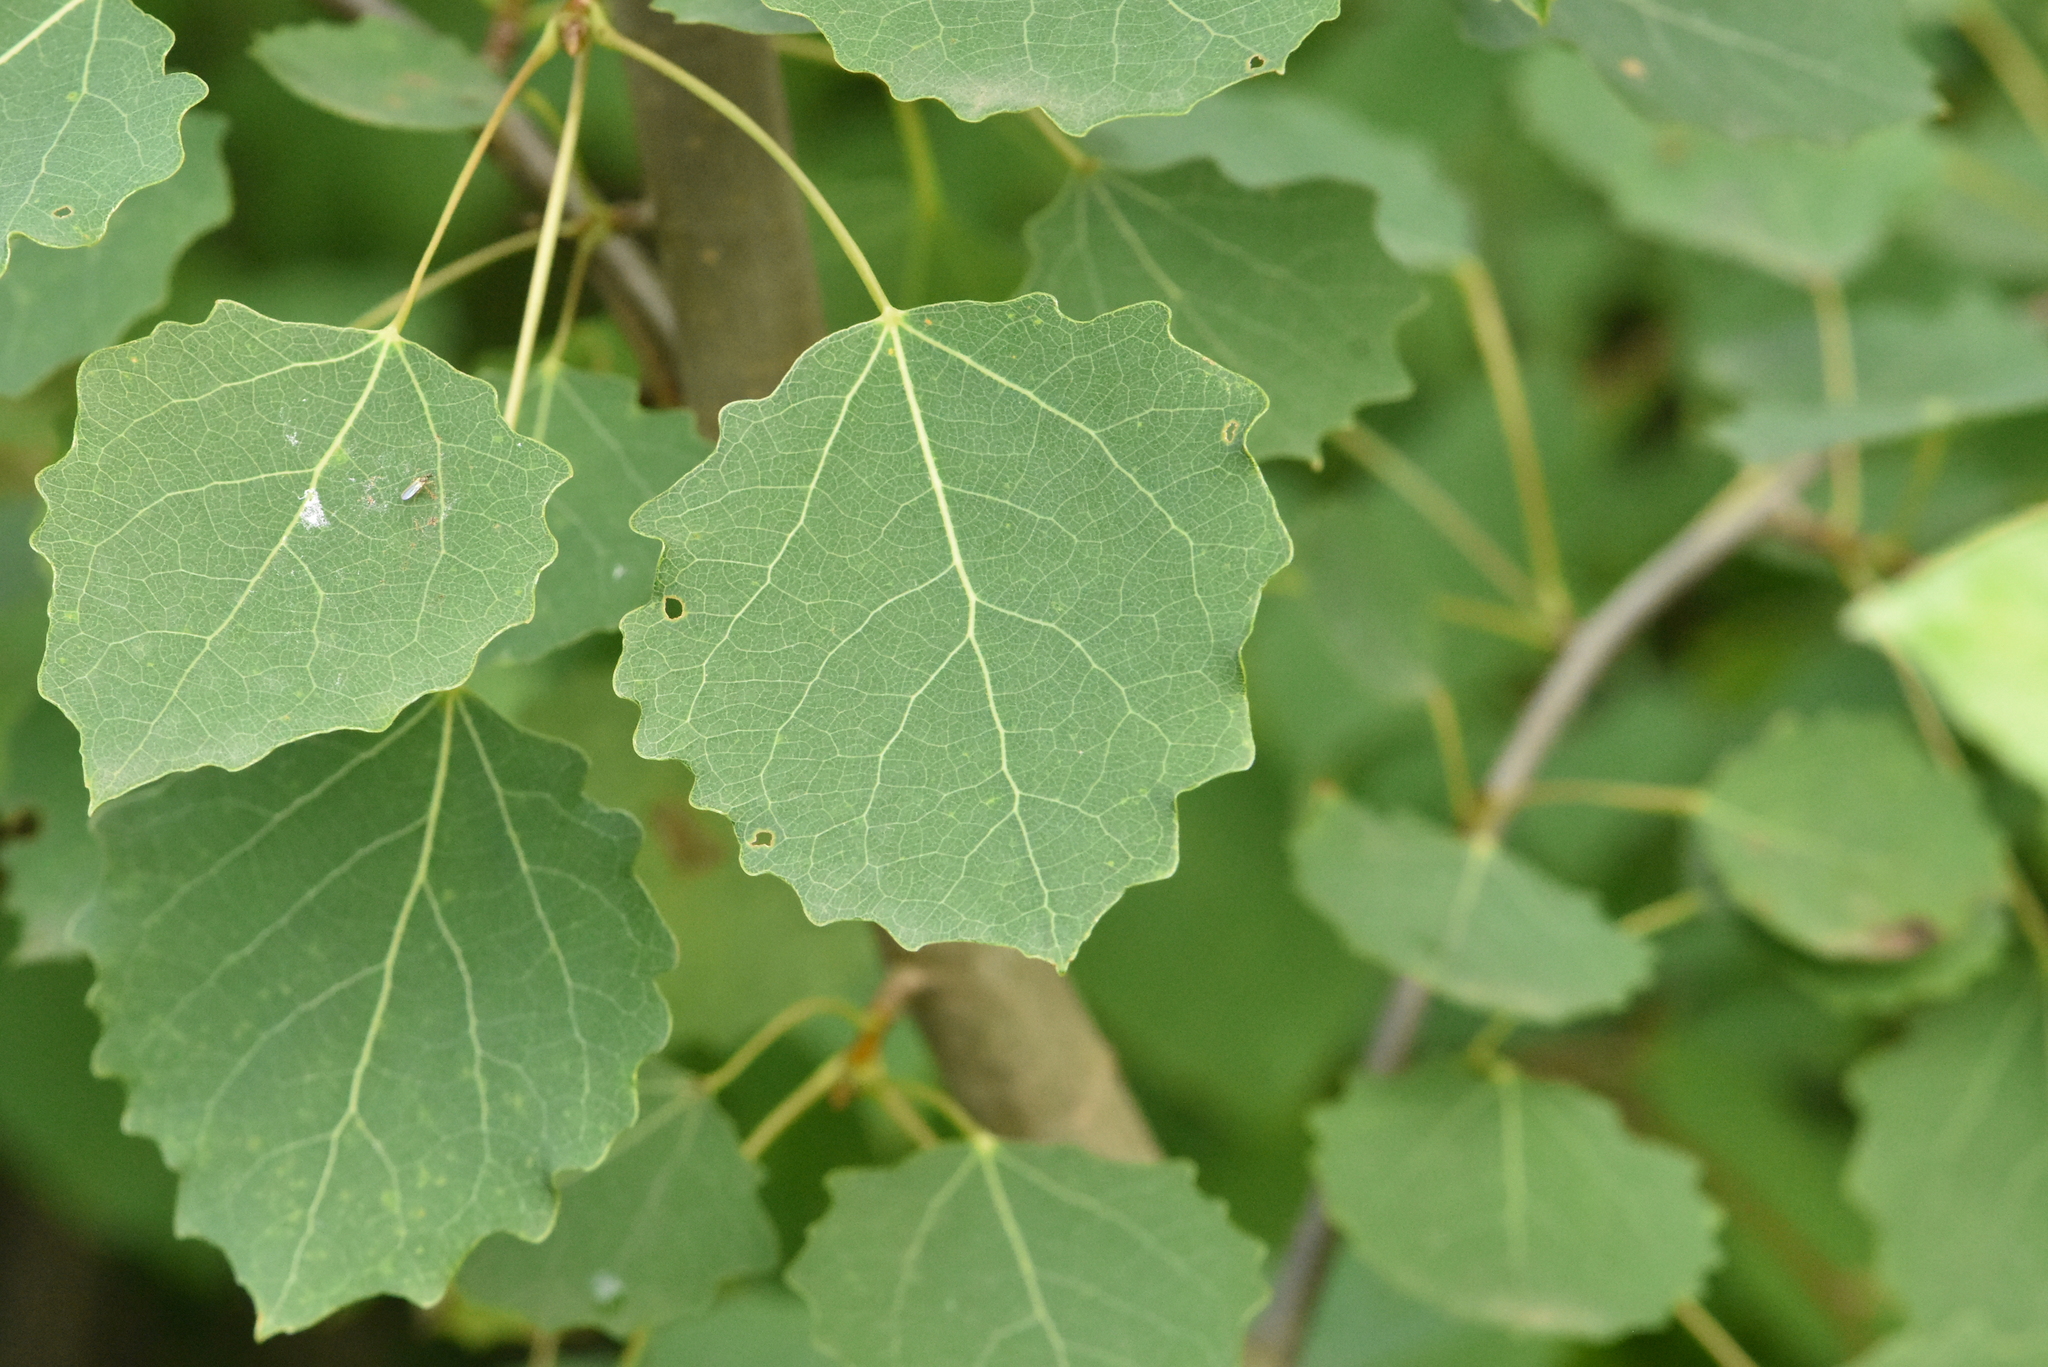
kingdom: Plantae
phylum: Tracheophyta
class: Magnoliopsida
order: Malpighiales
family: Salicaceae
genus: Populus
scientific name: Populus tremula
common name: European aspen
